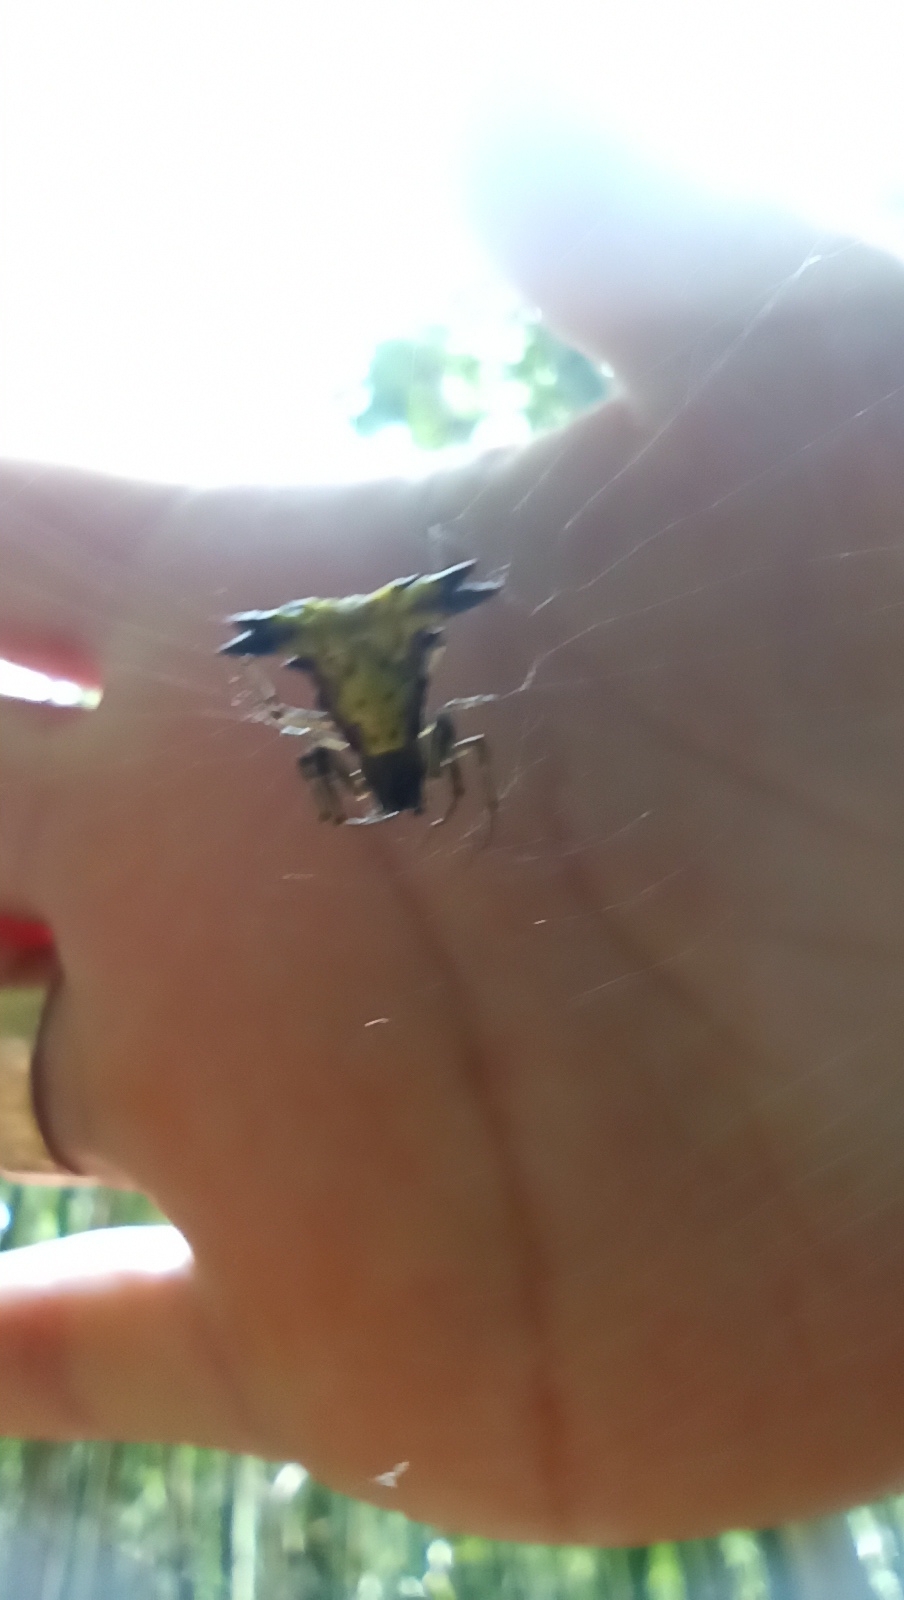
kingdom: Animalia
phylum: Arthropoda
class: Arachnida
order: Araneae
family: Araneidae
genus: Micrathena
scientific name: Micrathena furva
